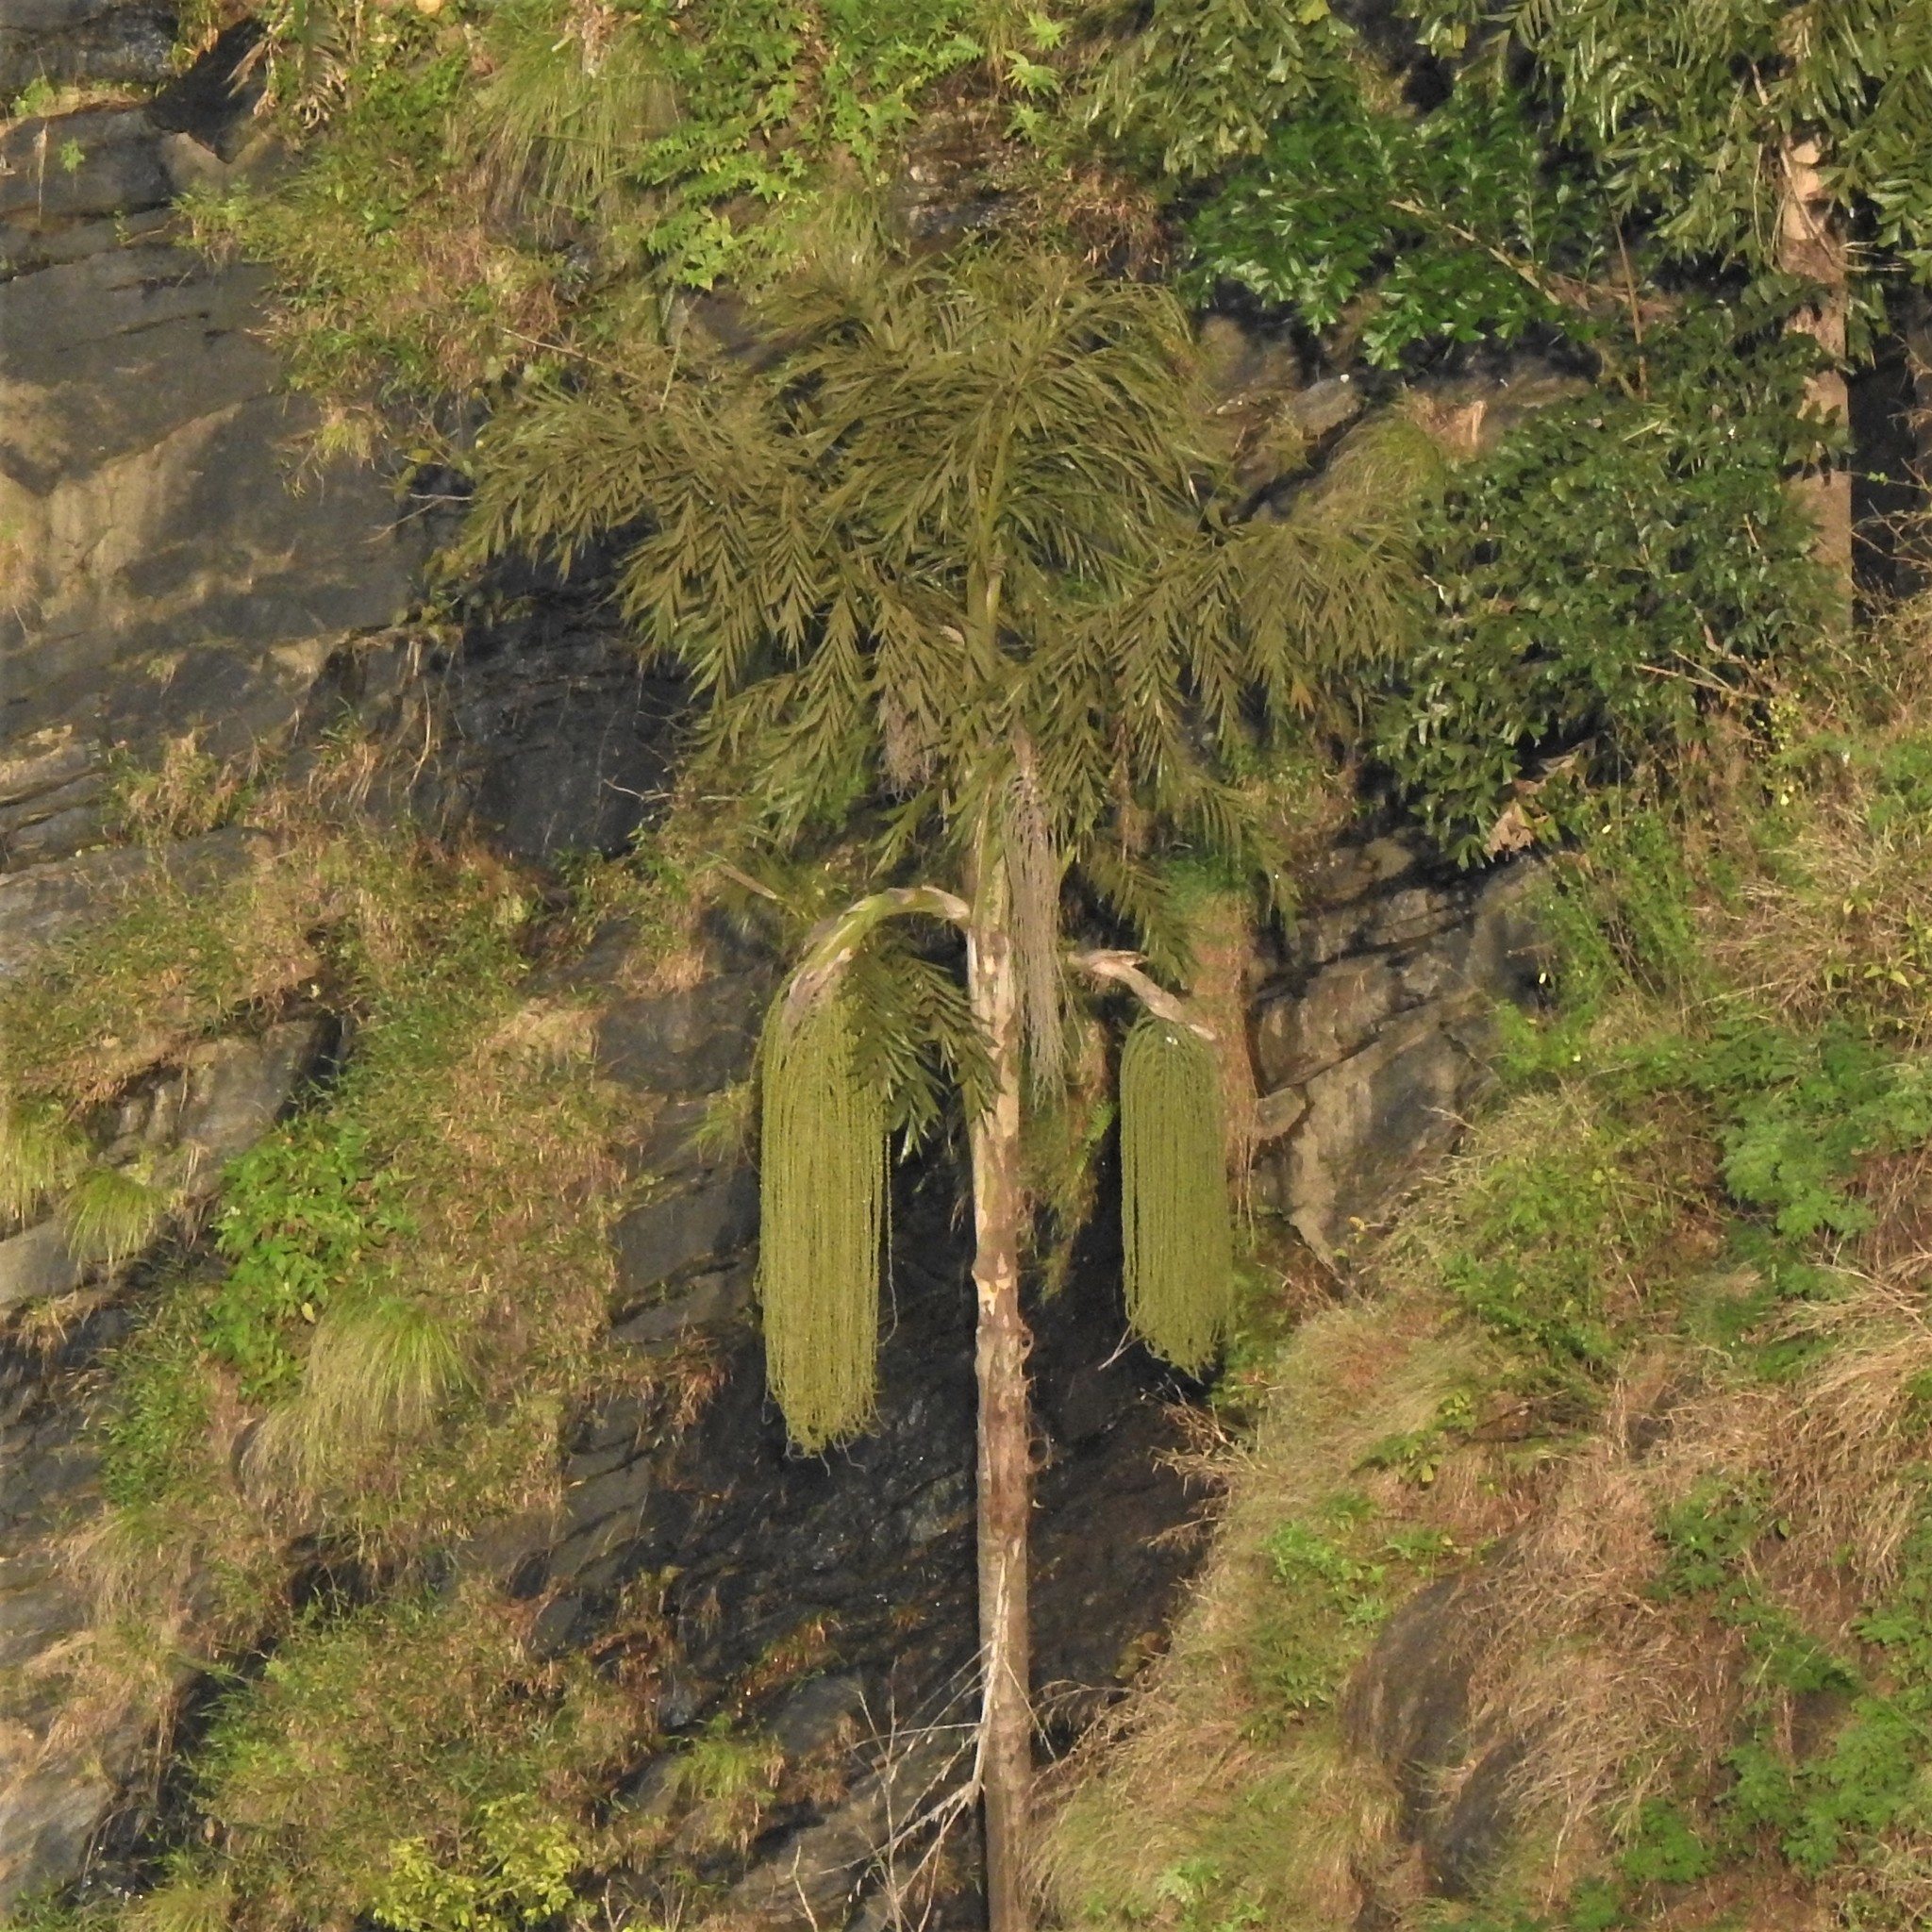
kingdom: Plantae
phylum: Tracheophyta
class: Liliopsida
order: Arecales
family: Arecaceae
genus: Caryota
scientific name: Caryota urens
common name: Jaggery palm
